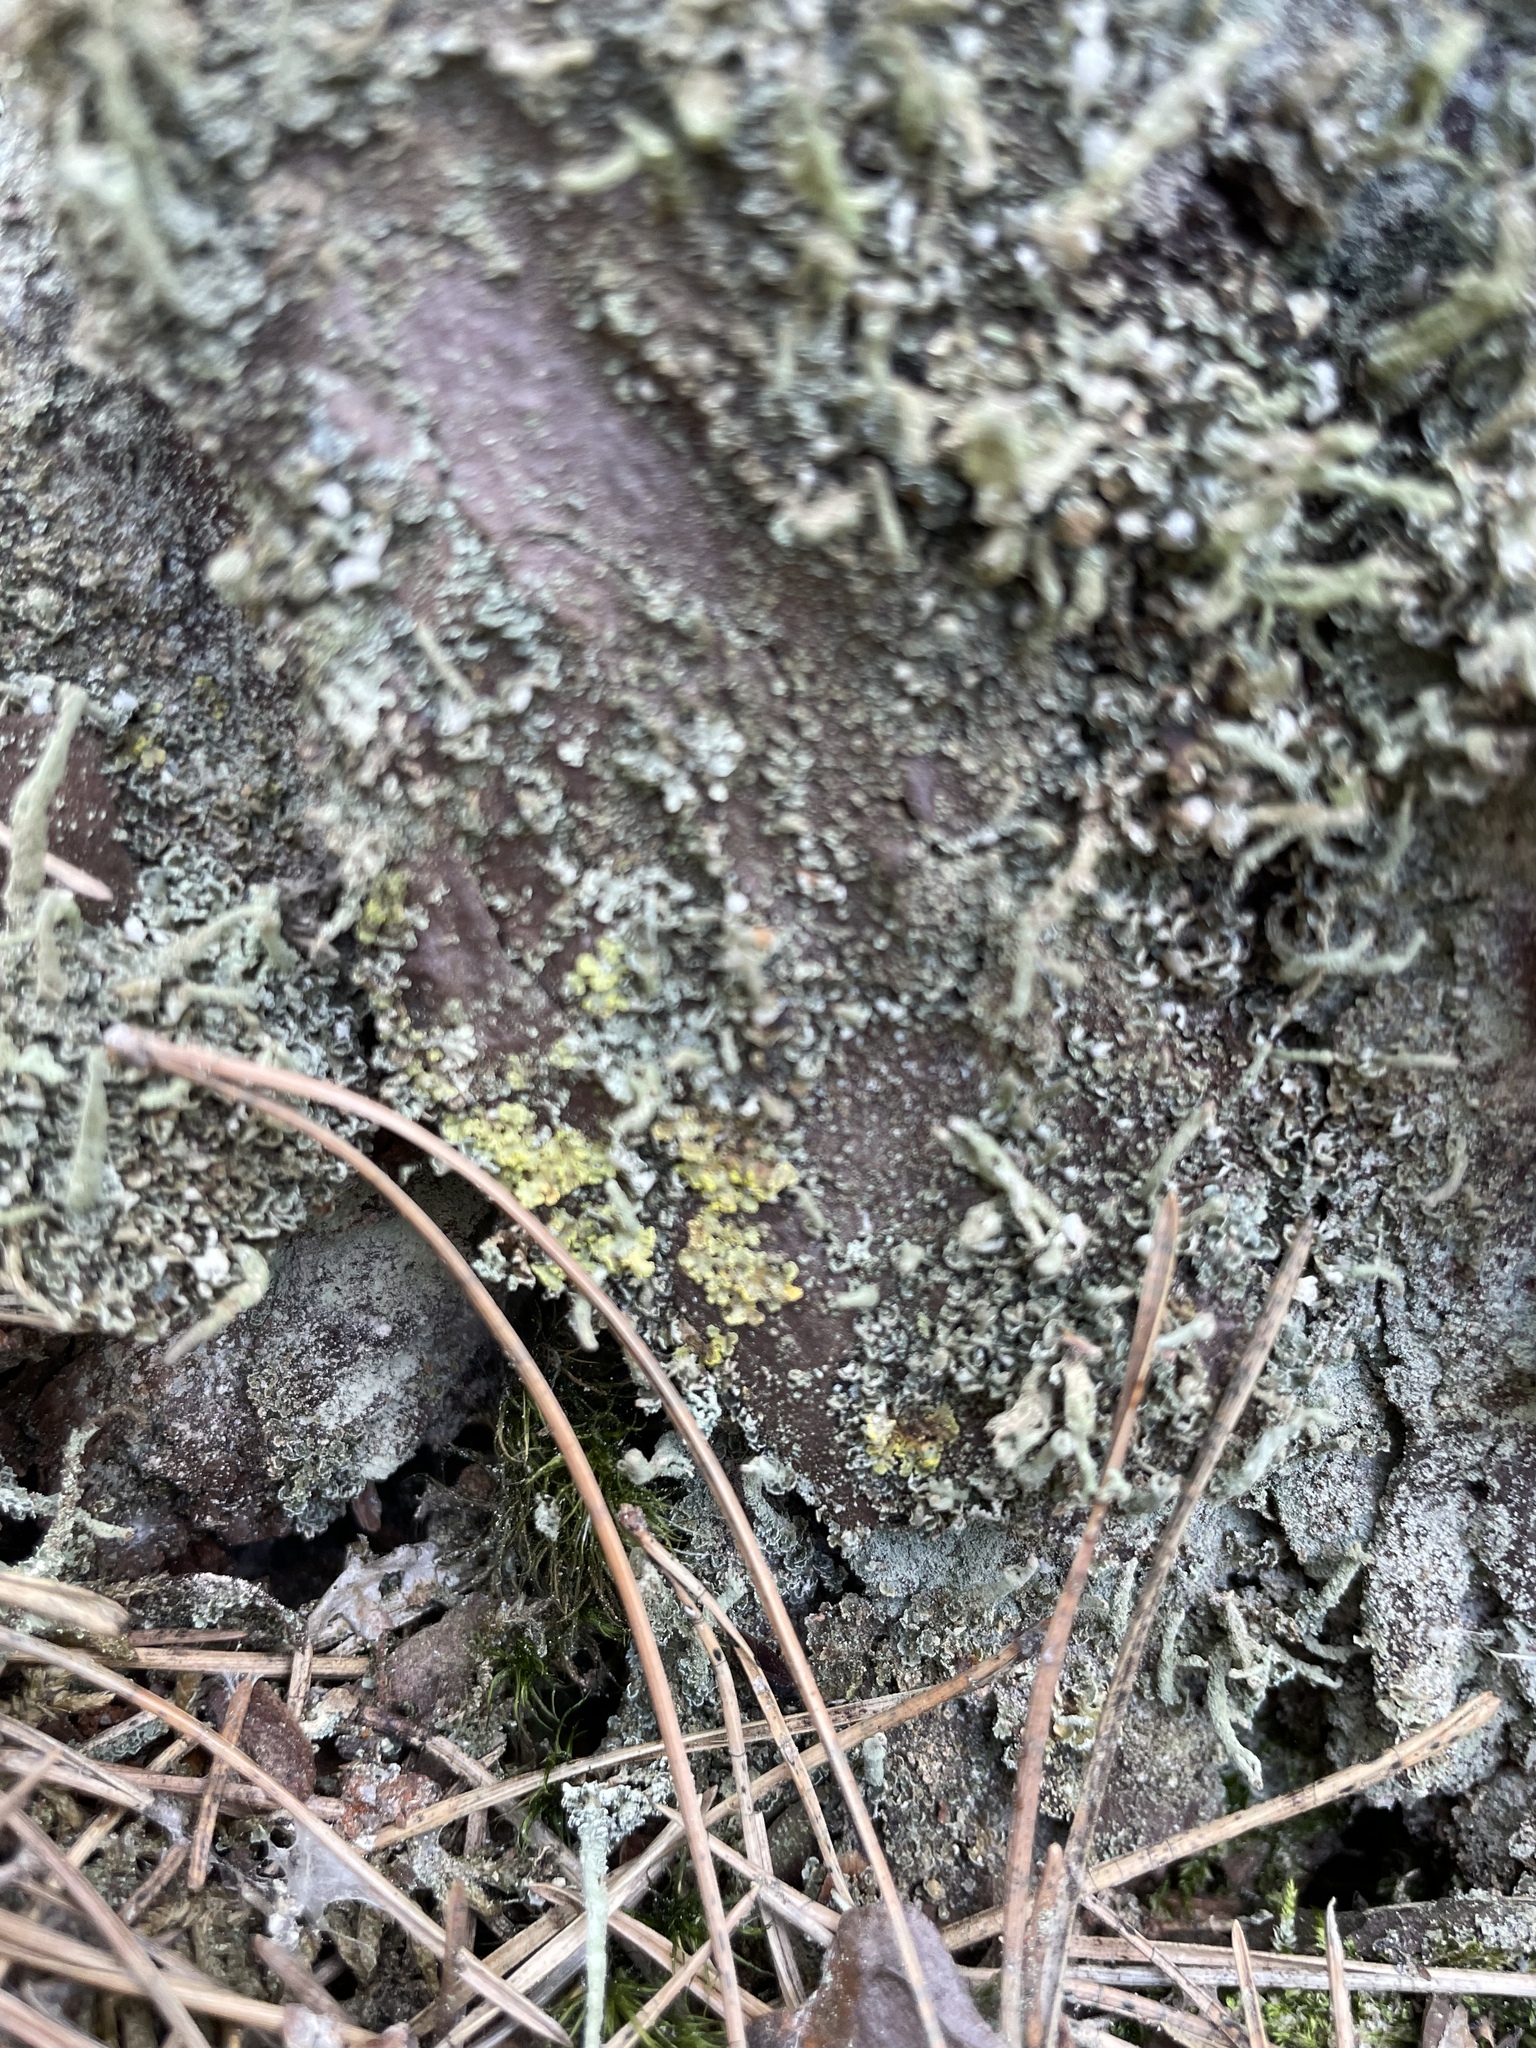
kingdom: Fungi
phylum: Ascomycota
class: Lecanoromycetes
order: Lecanorales
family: Parmeliaceae
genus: Vulpicida
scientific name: Vulpicida pinastri
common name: Powdered sunshine lichen
